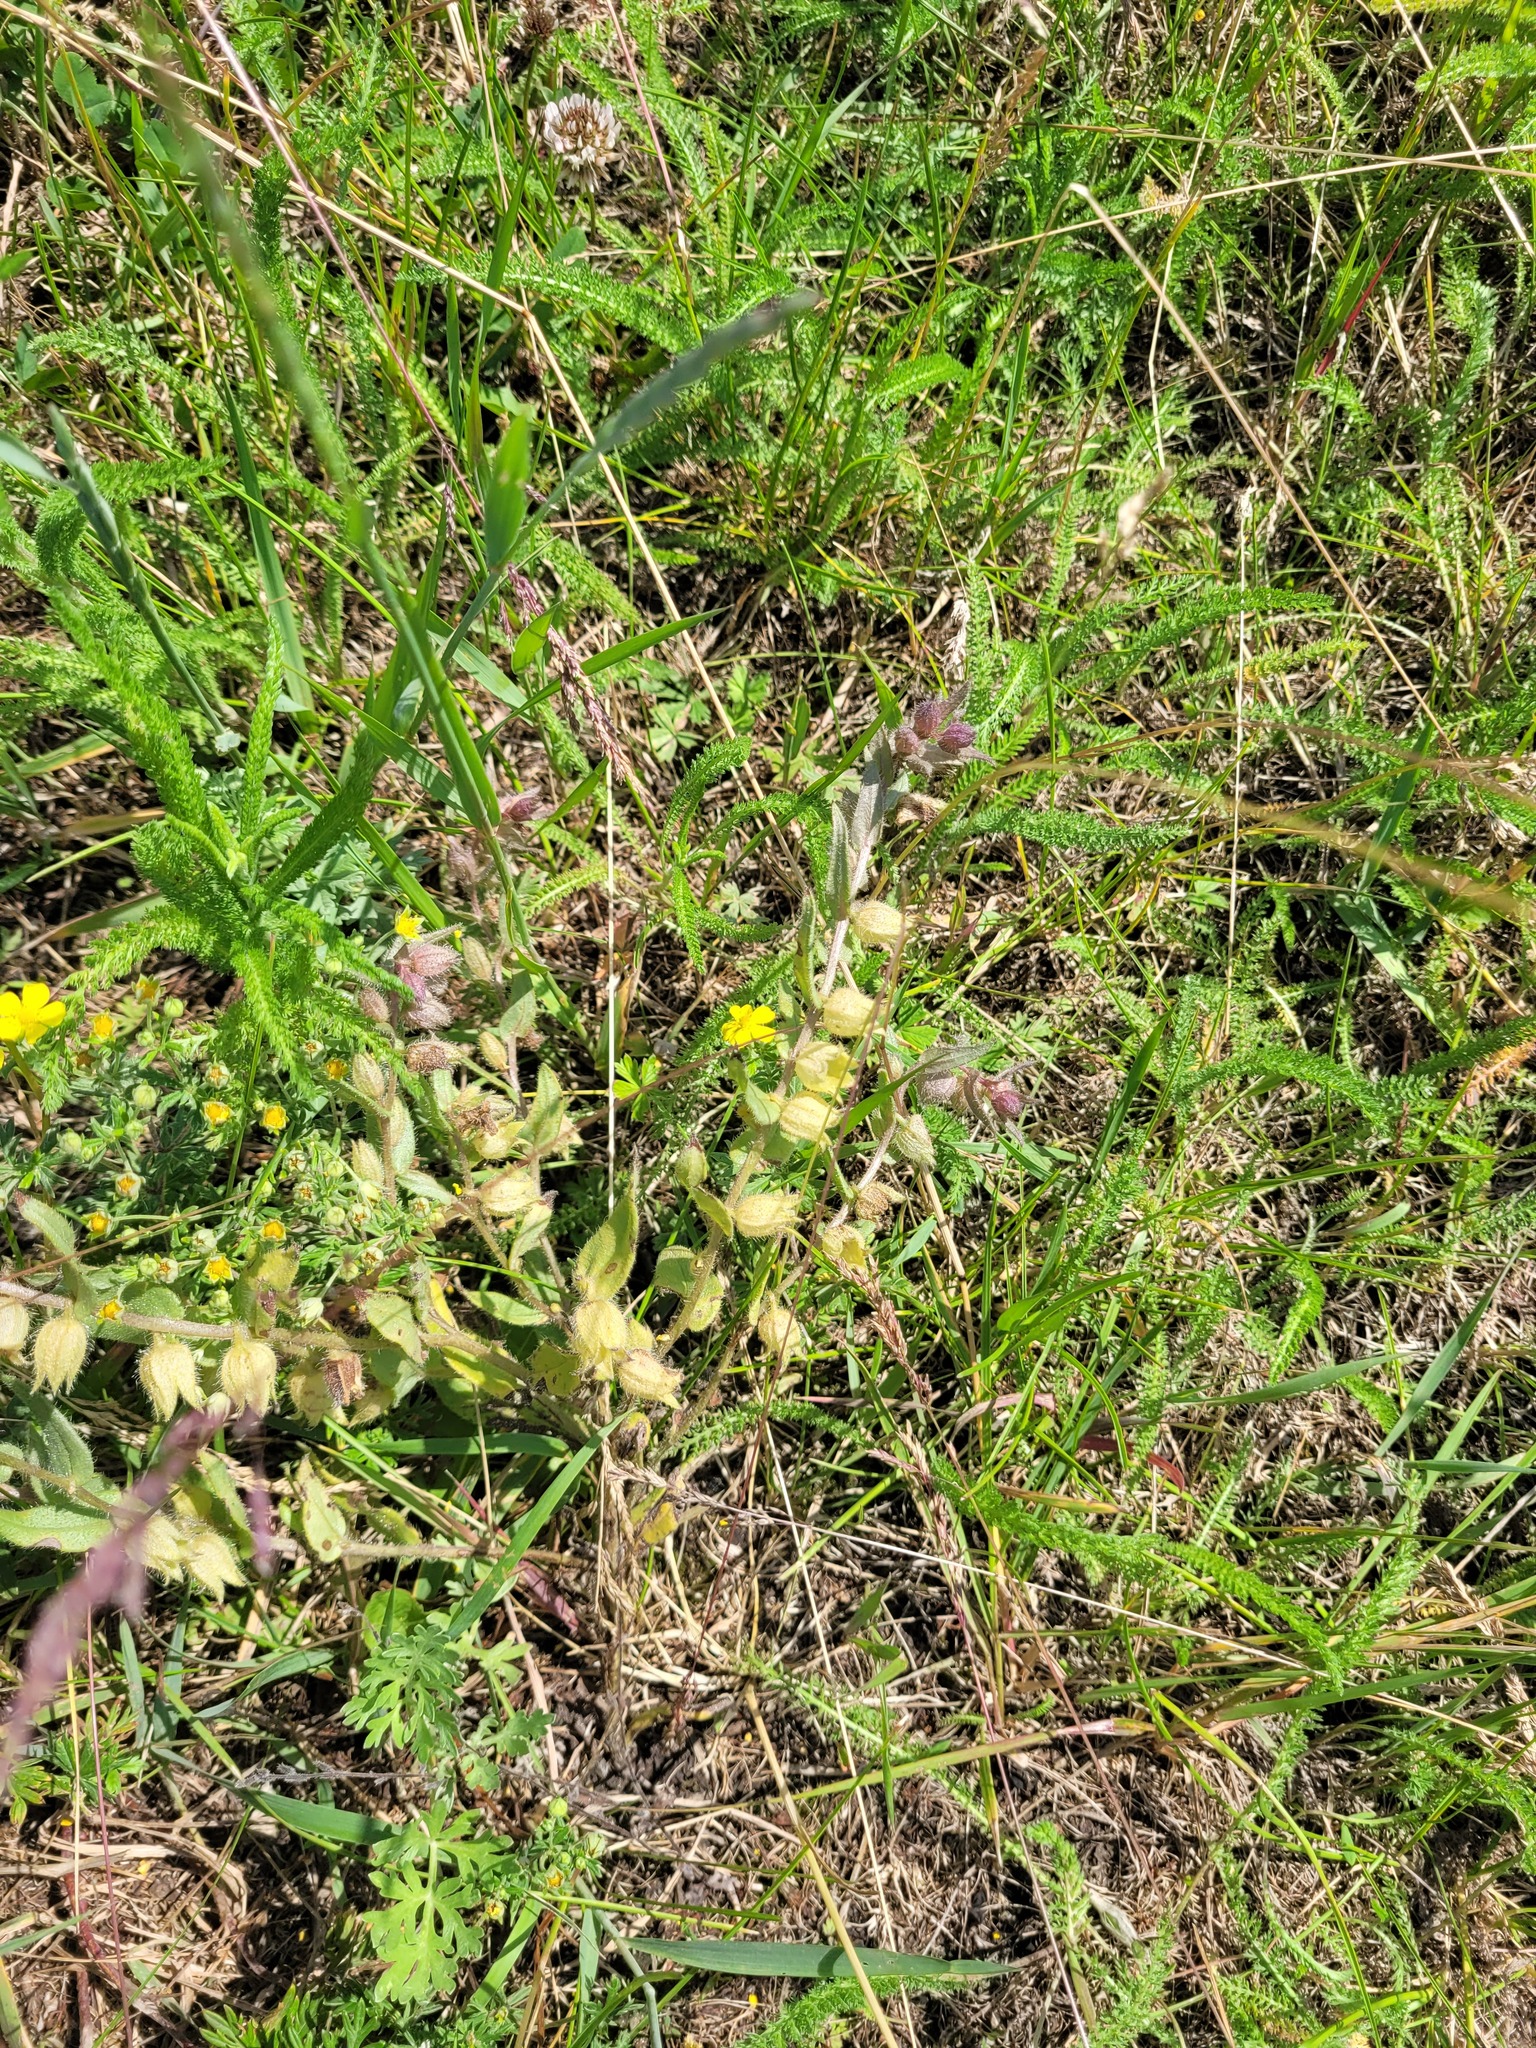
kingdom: Plantae
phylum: Tracheophyta
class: Magnoliopsida
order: Boraginales
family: Boraginaceae
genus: Nonea
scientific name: Nonea pulla
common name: Brown nonea
